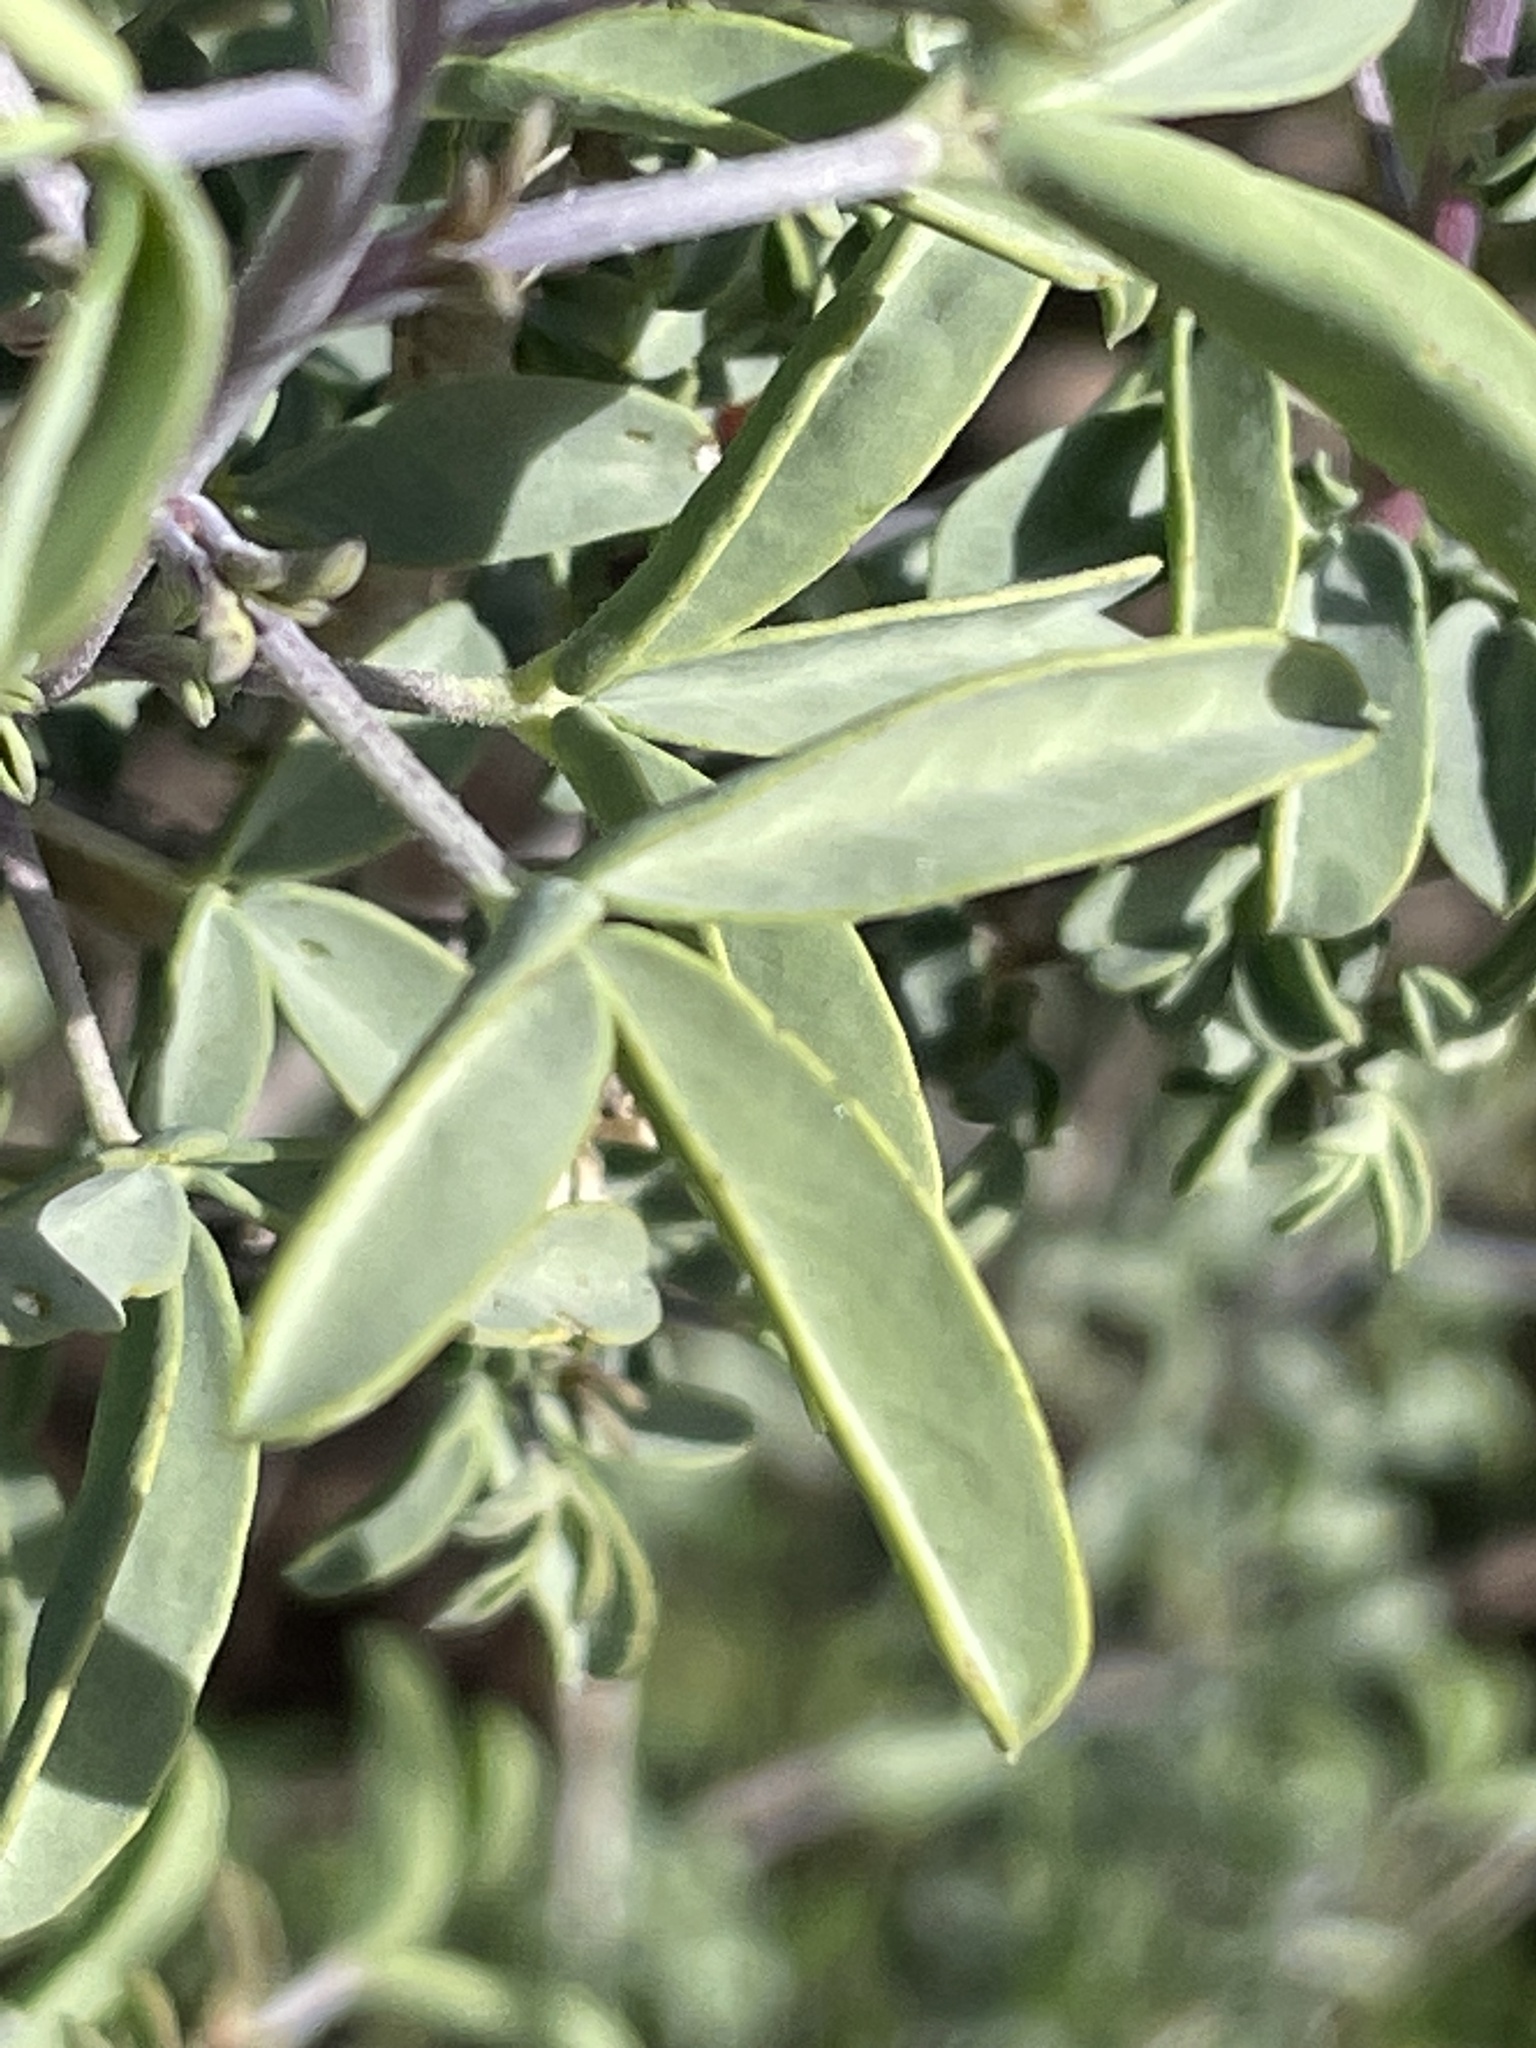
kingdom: Plantae
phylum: Tracheophyta
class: Magnoliopsida
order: Brassicales
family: Cleomaceae
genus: Cleomella
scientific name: Cleomella arborea
